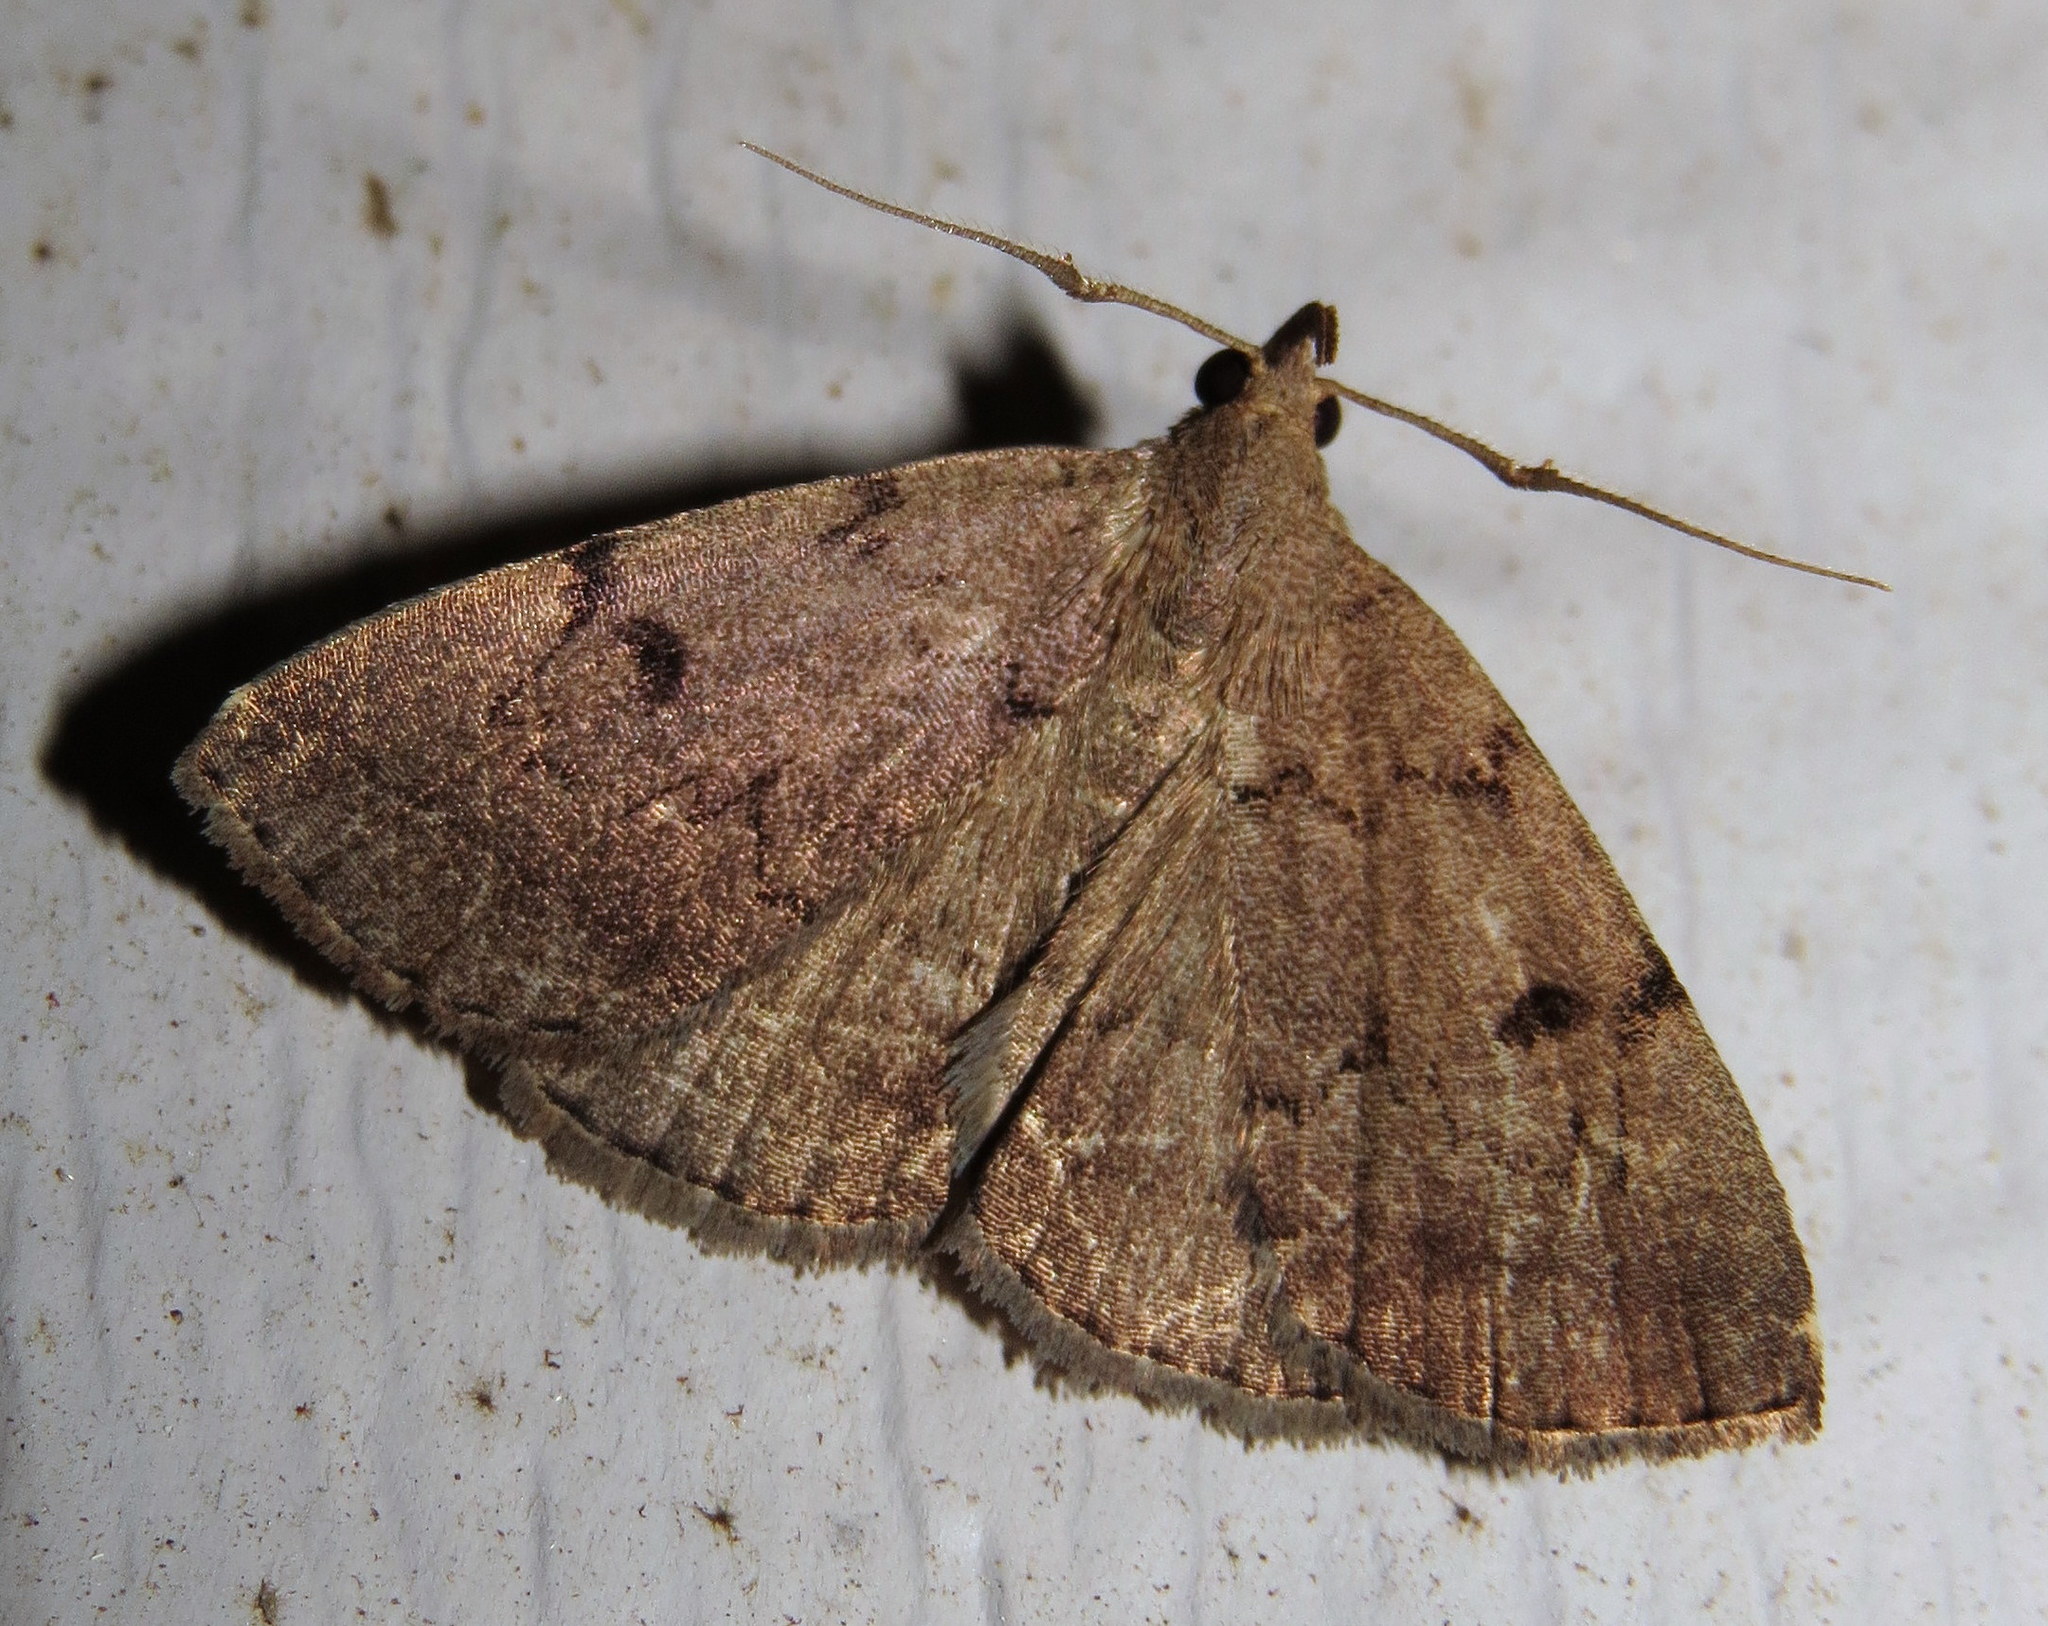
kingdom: Animalia
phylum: Arthropoda
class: Insecta
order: Lepidoptera
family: Erebidae
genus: Zanclognatha
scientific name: Zanclognatha dentata
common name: Toothed fan-foot
